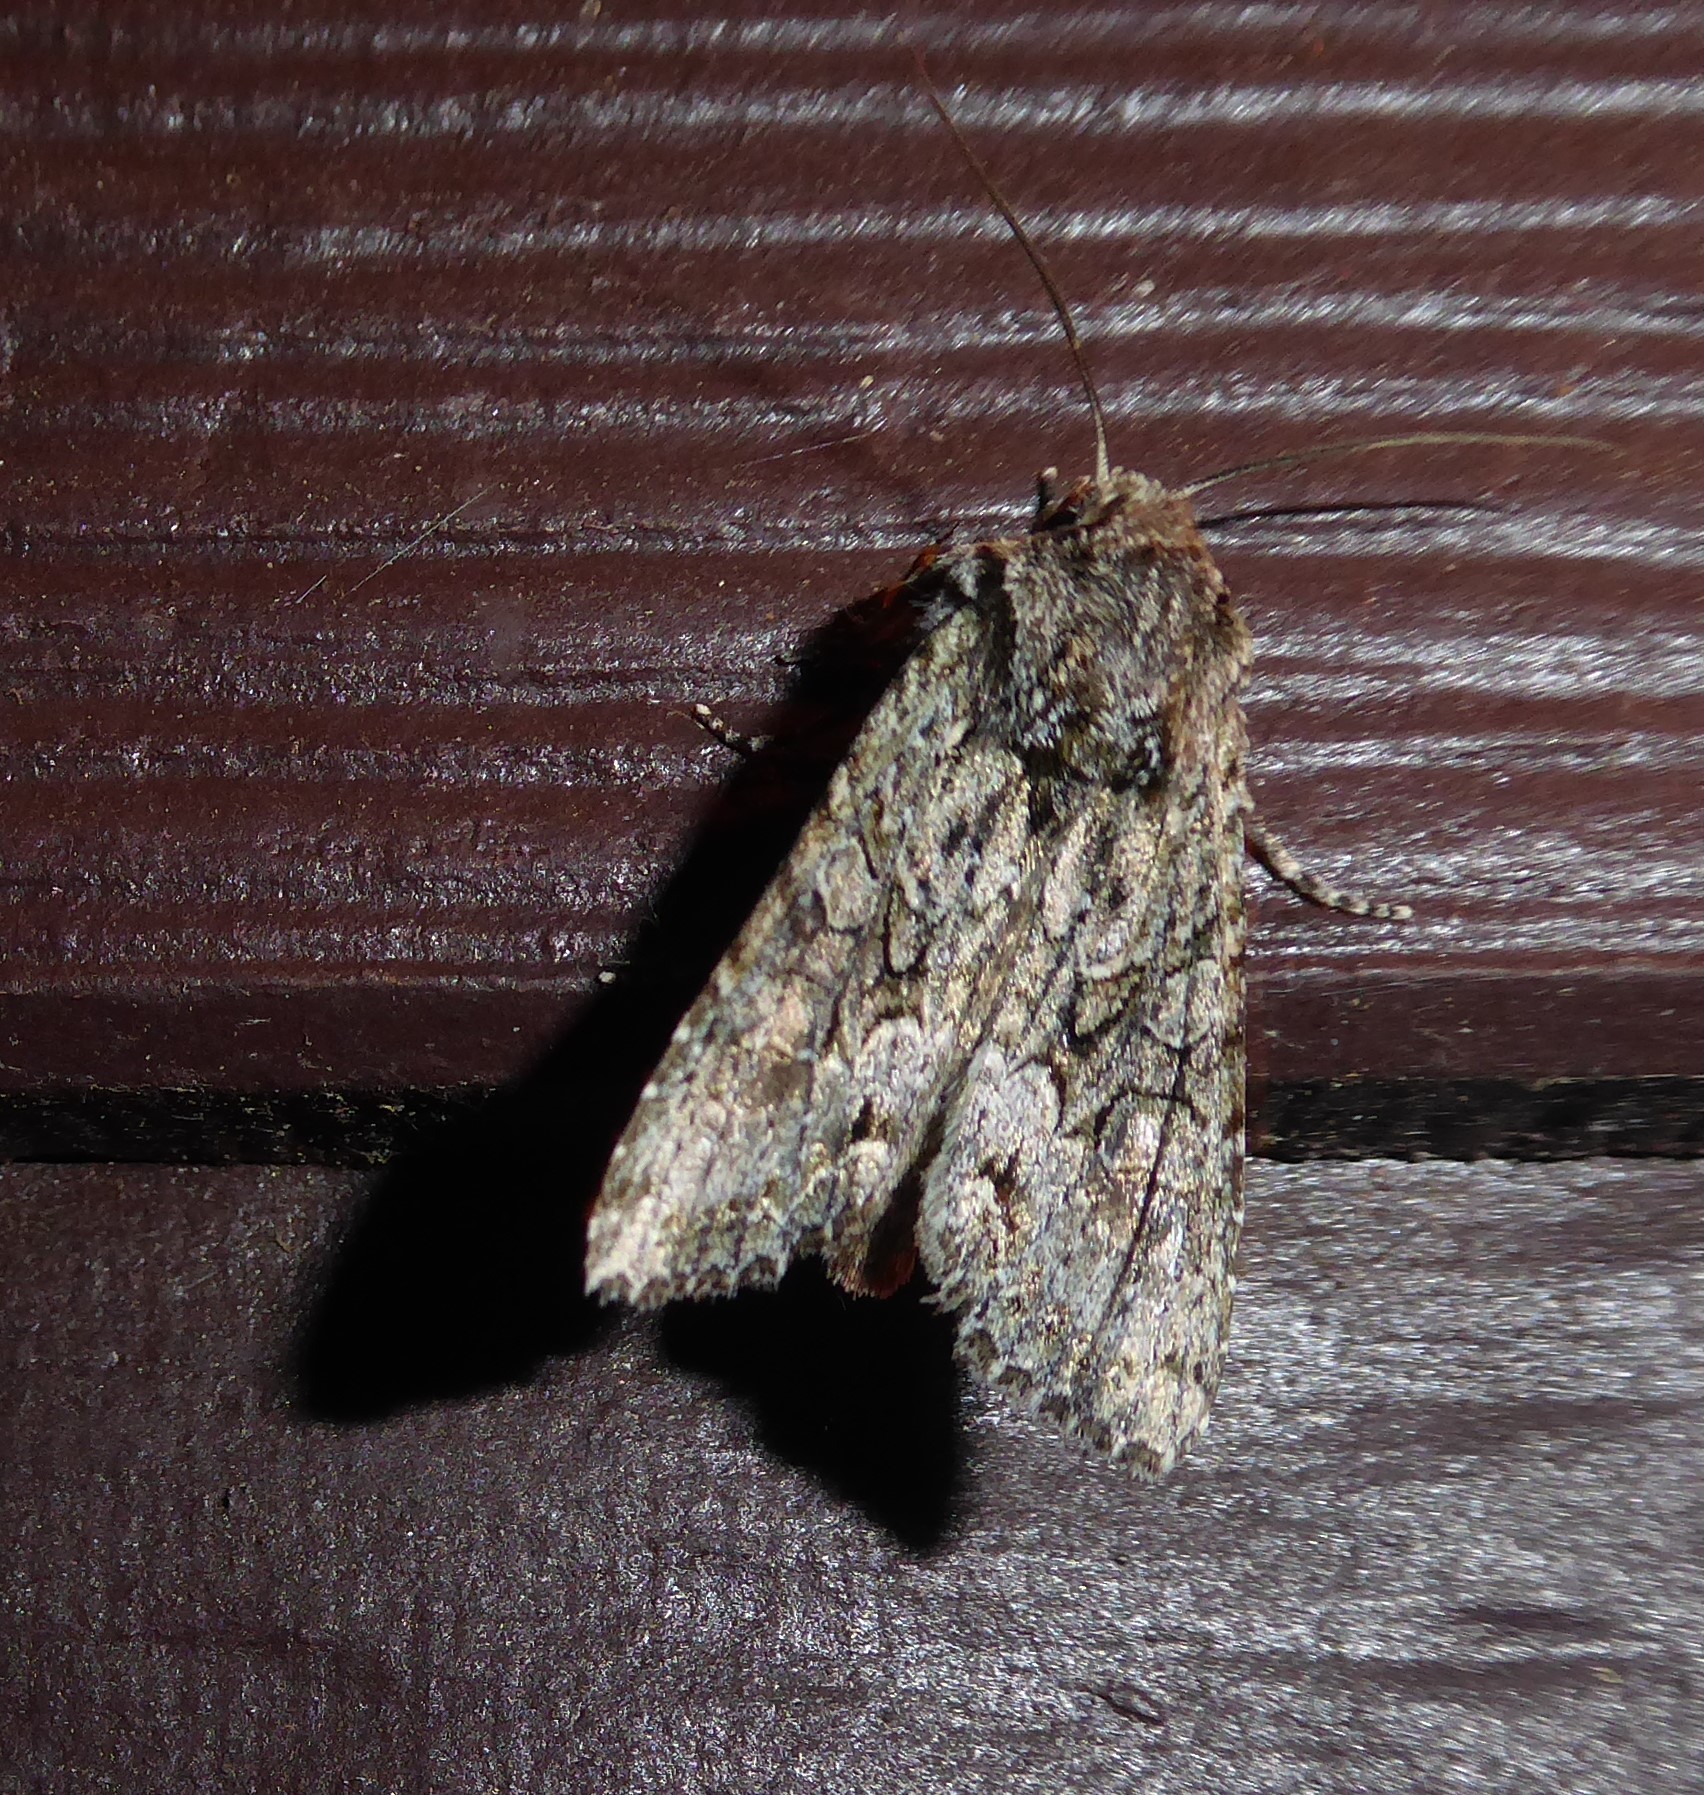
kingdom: Animalia
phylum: Arthropoda
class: Insecta
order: Lepidoptera
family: Noctuidae
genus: Ichneutica
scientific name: Ichneutica mutans
